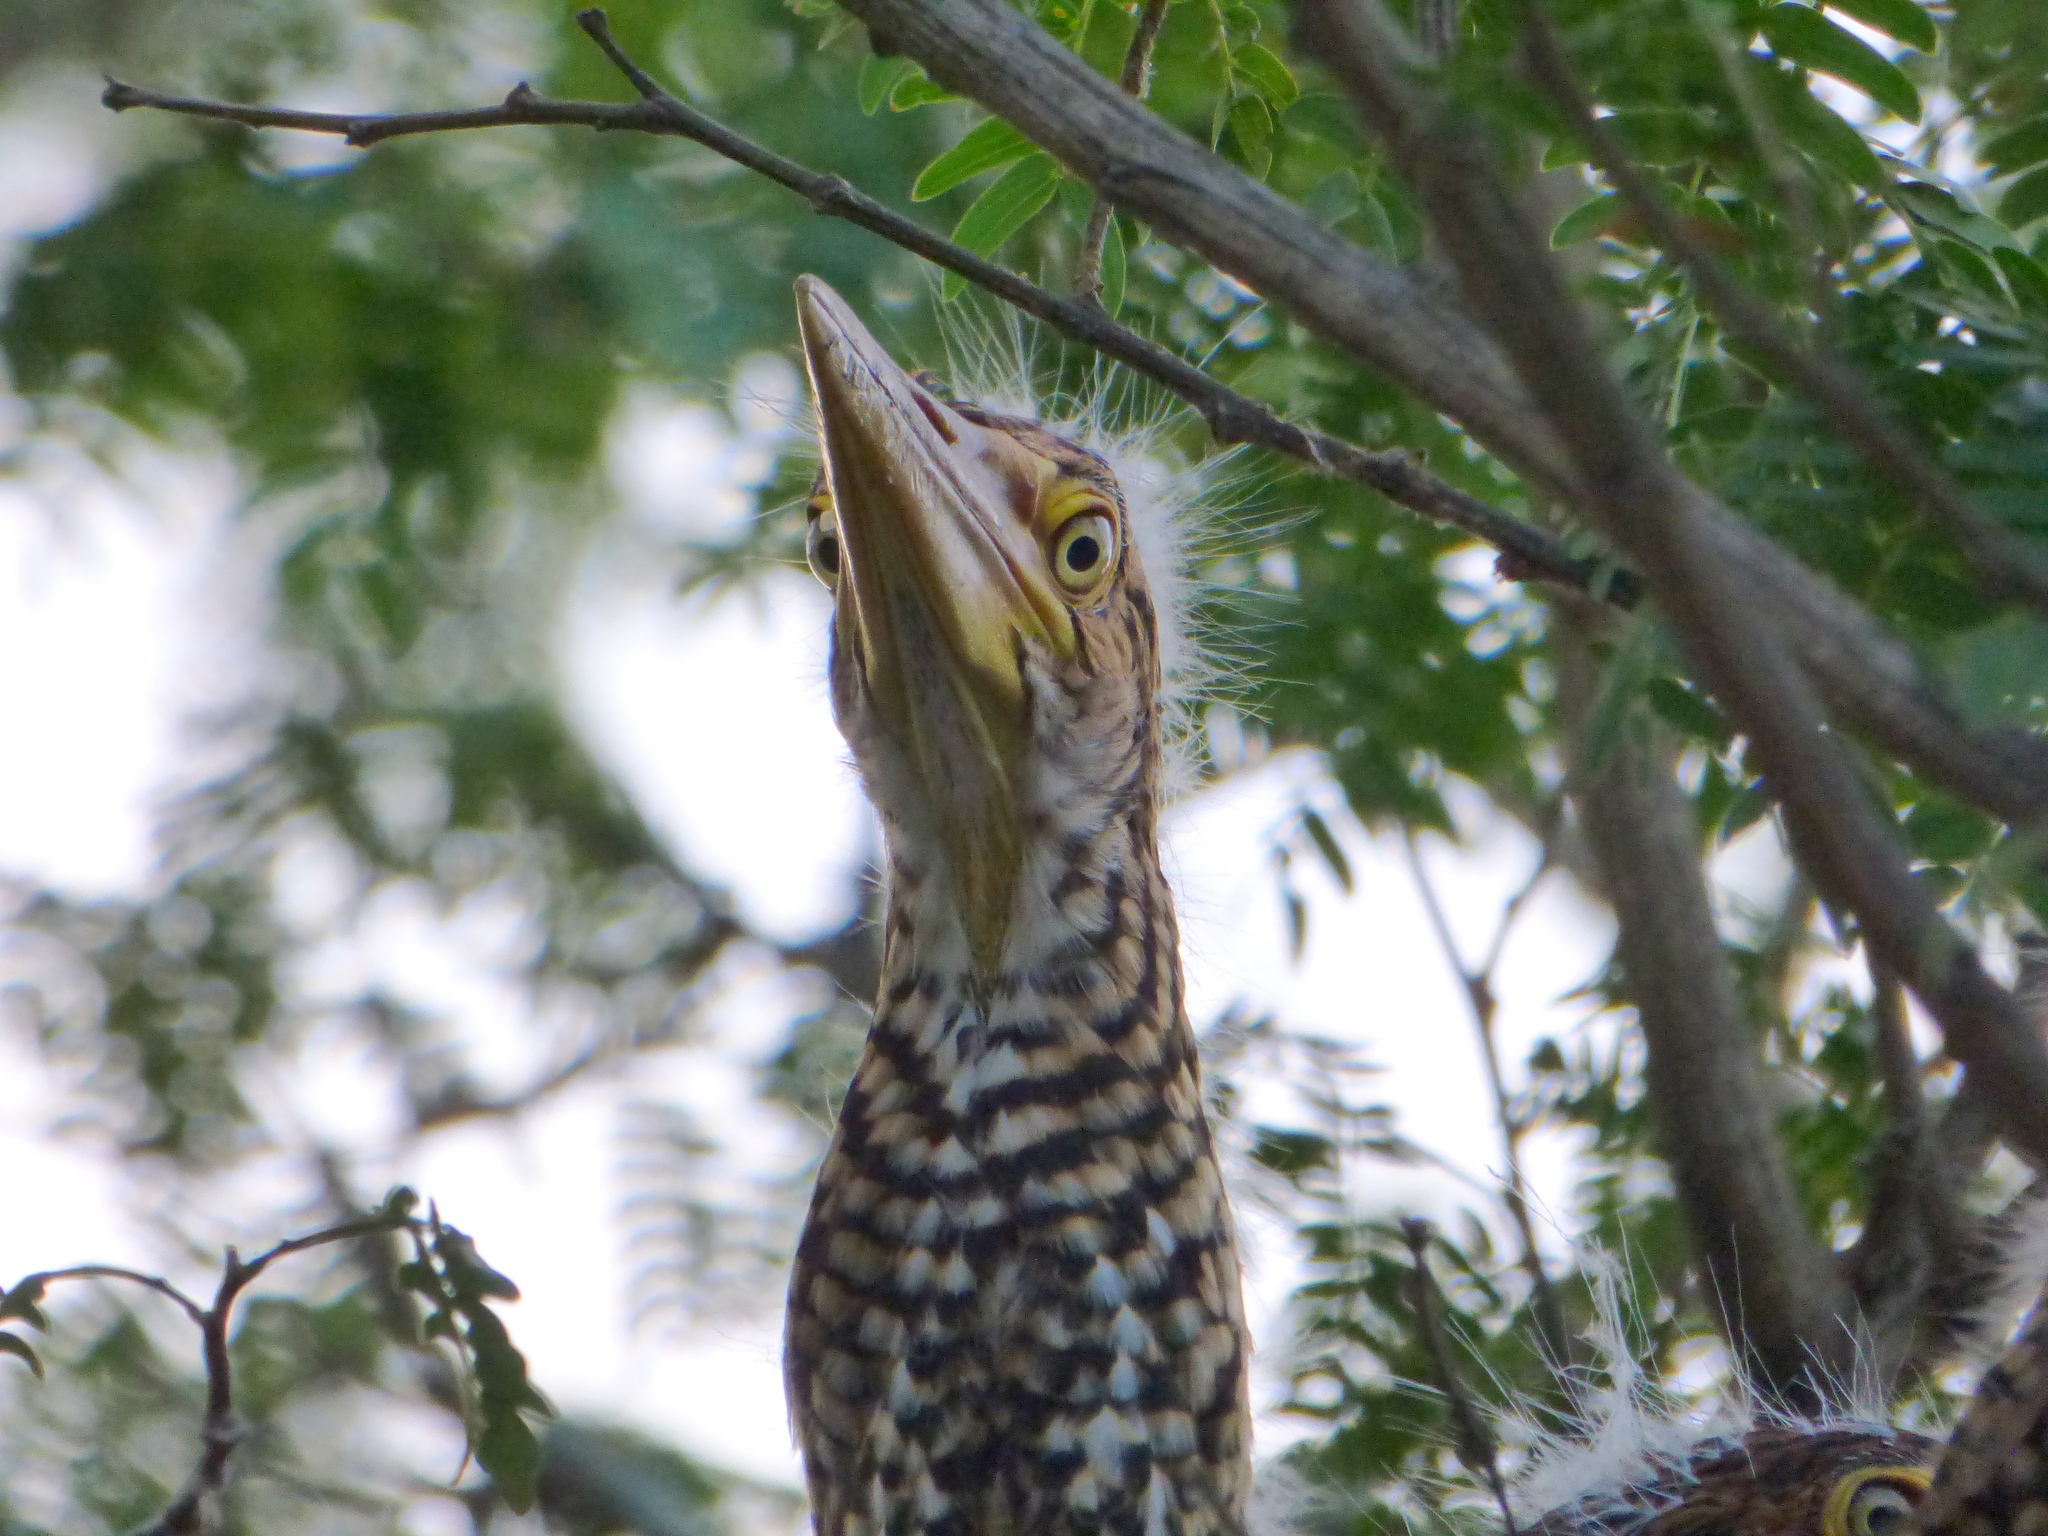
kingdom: Animalia
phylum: Chordata
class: Aves
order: Pelecaniformes
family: Ardeidae
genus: Tigrisoma
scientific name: Tigrisoma lineatum
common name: Rufescent tiger-heron
